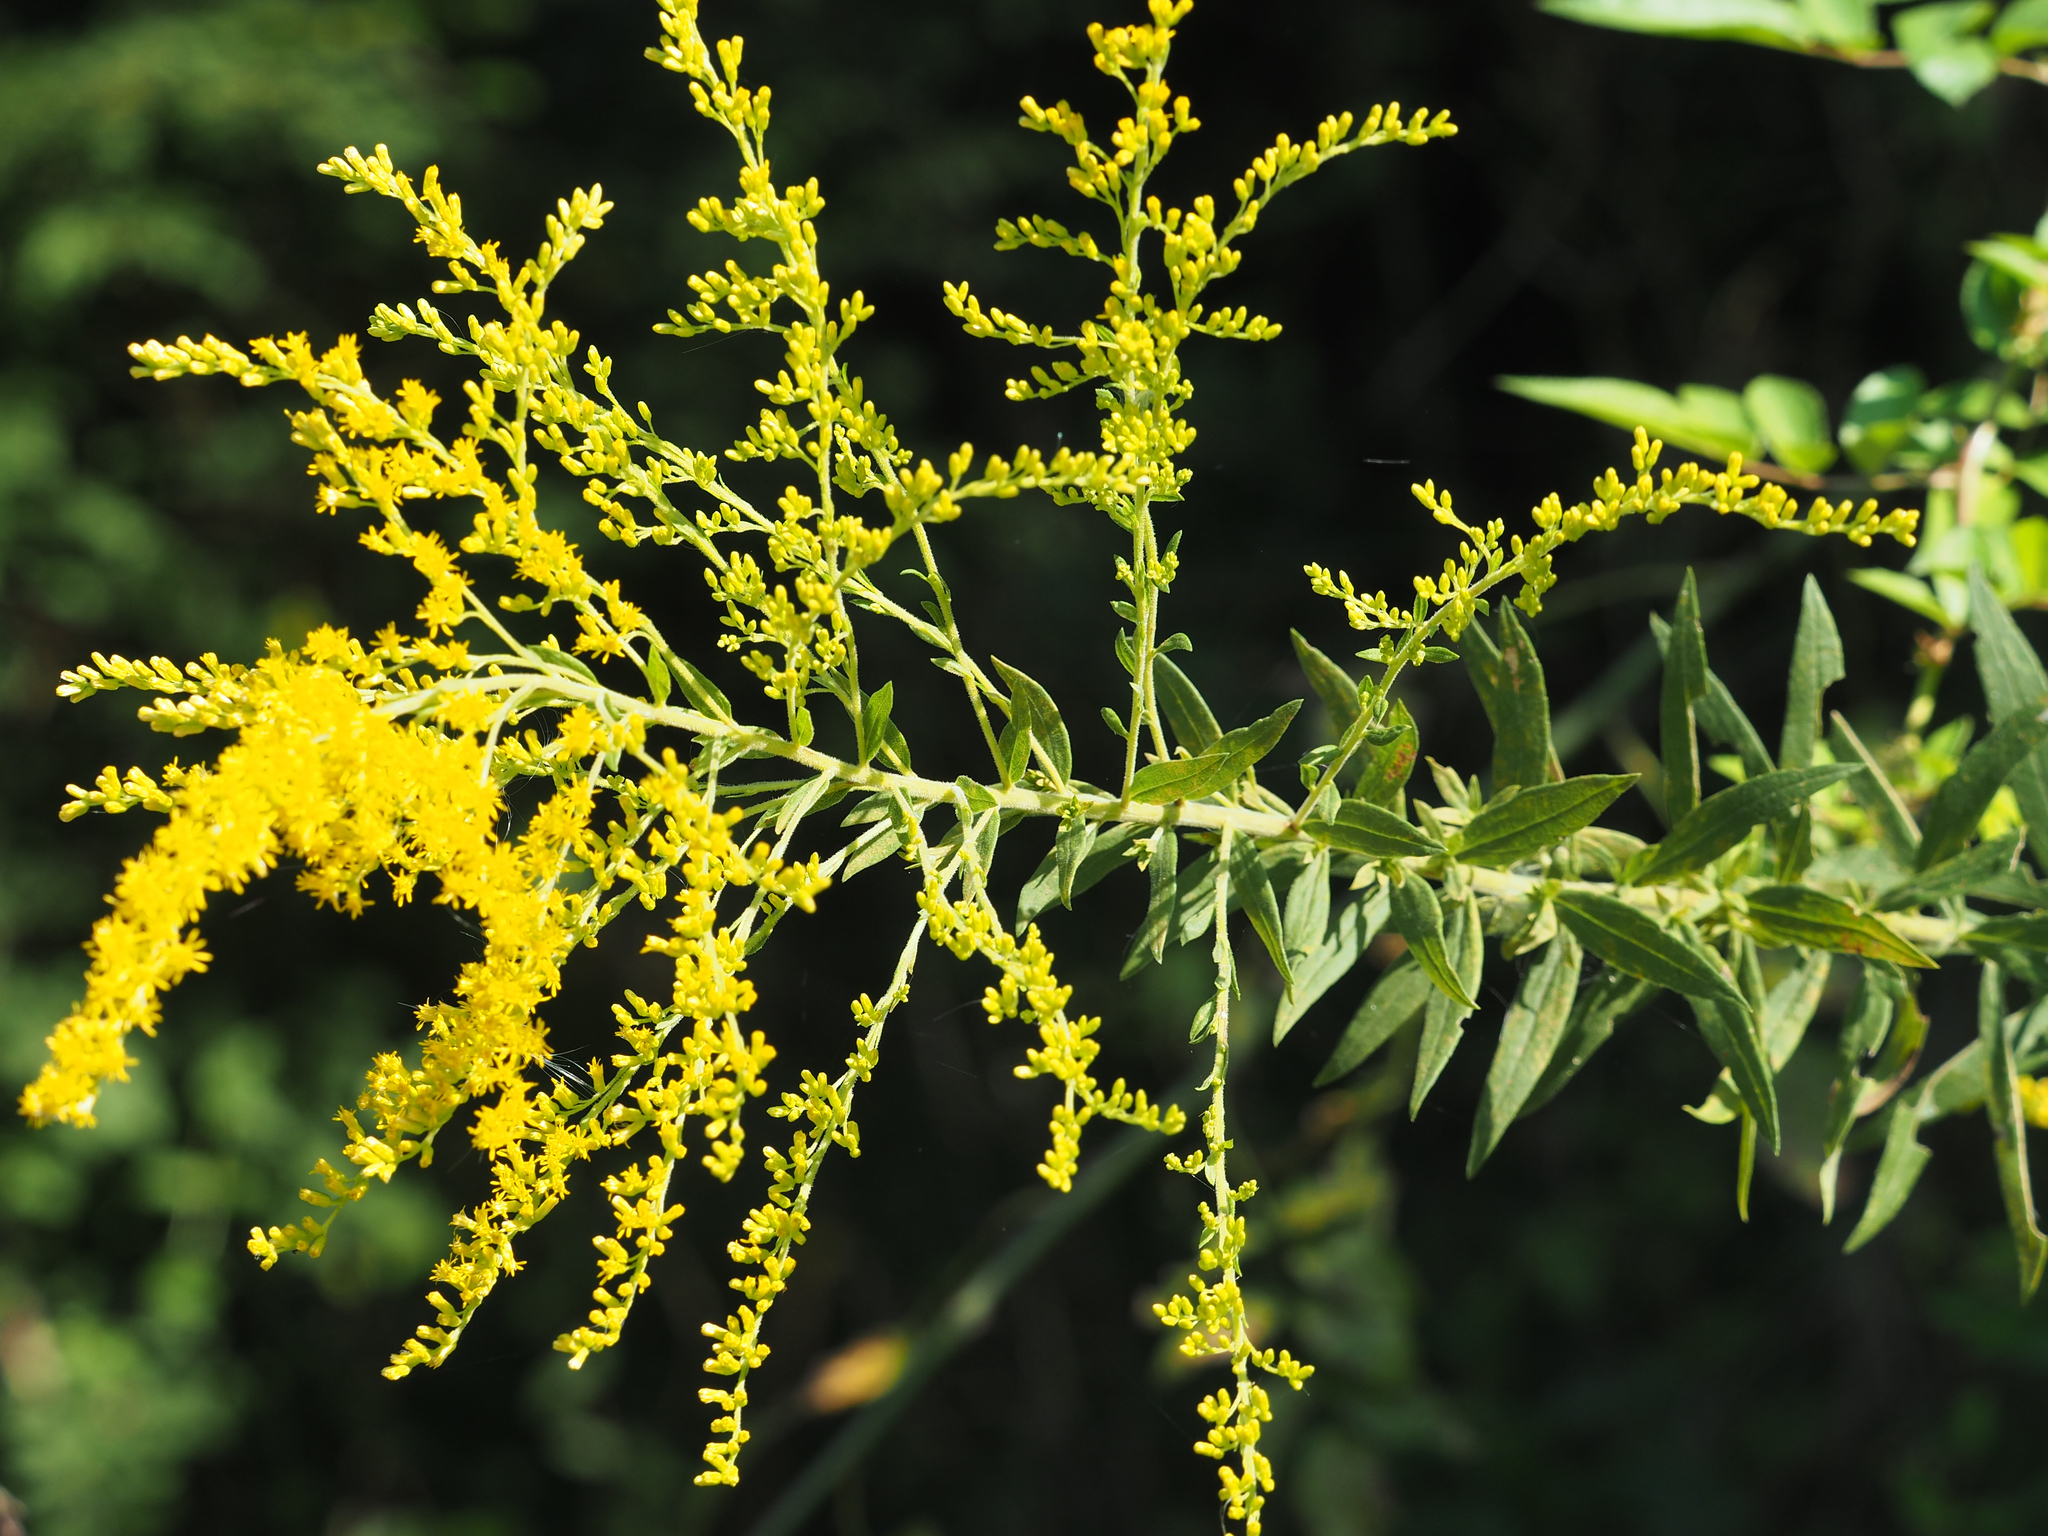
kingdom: Plantae
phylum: Tracheophyta
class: Magnoliopsida
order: Asterales
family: Asteraceae
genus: Solidago
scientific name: Solidago altissima
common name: Late goldenrod
